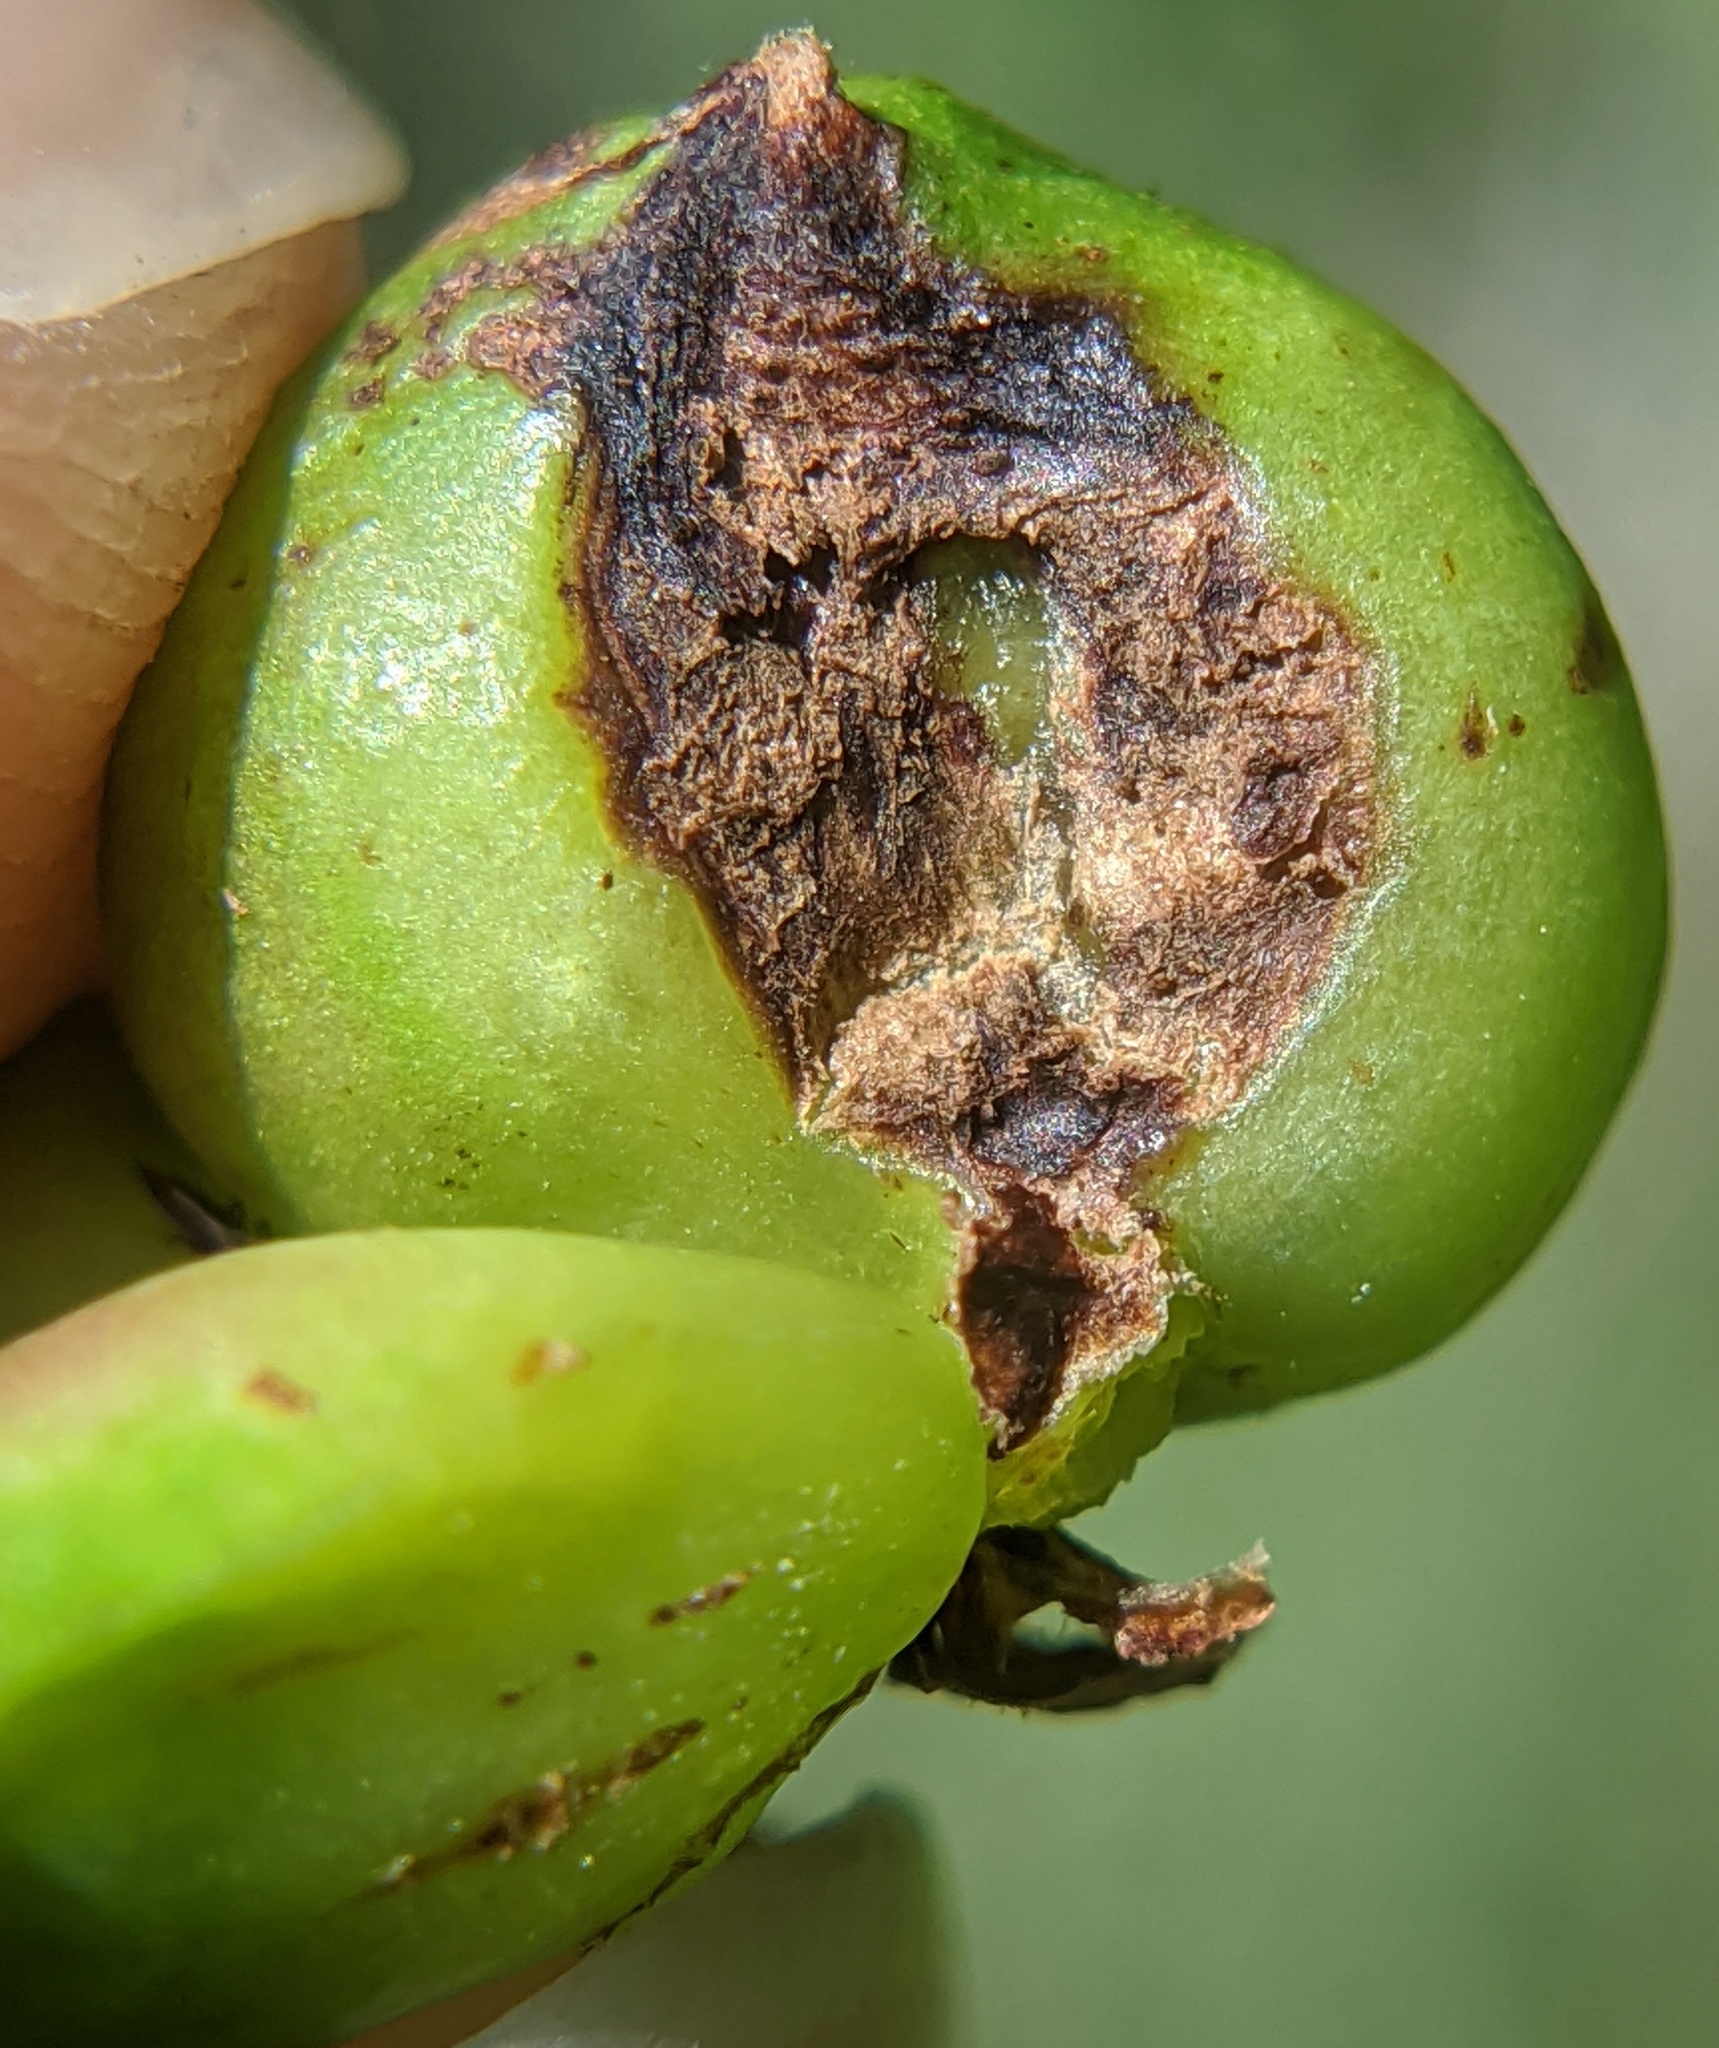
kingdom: Animalia
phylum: Arthropoda
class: Insecta
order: Diptera
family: Cecidomyiidae
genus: Ampelomyia
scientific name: Ampelomyia vitiscoryloides
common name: Grape filbert gall
